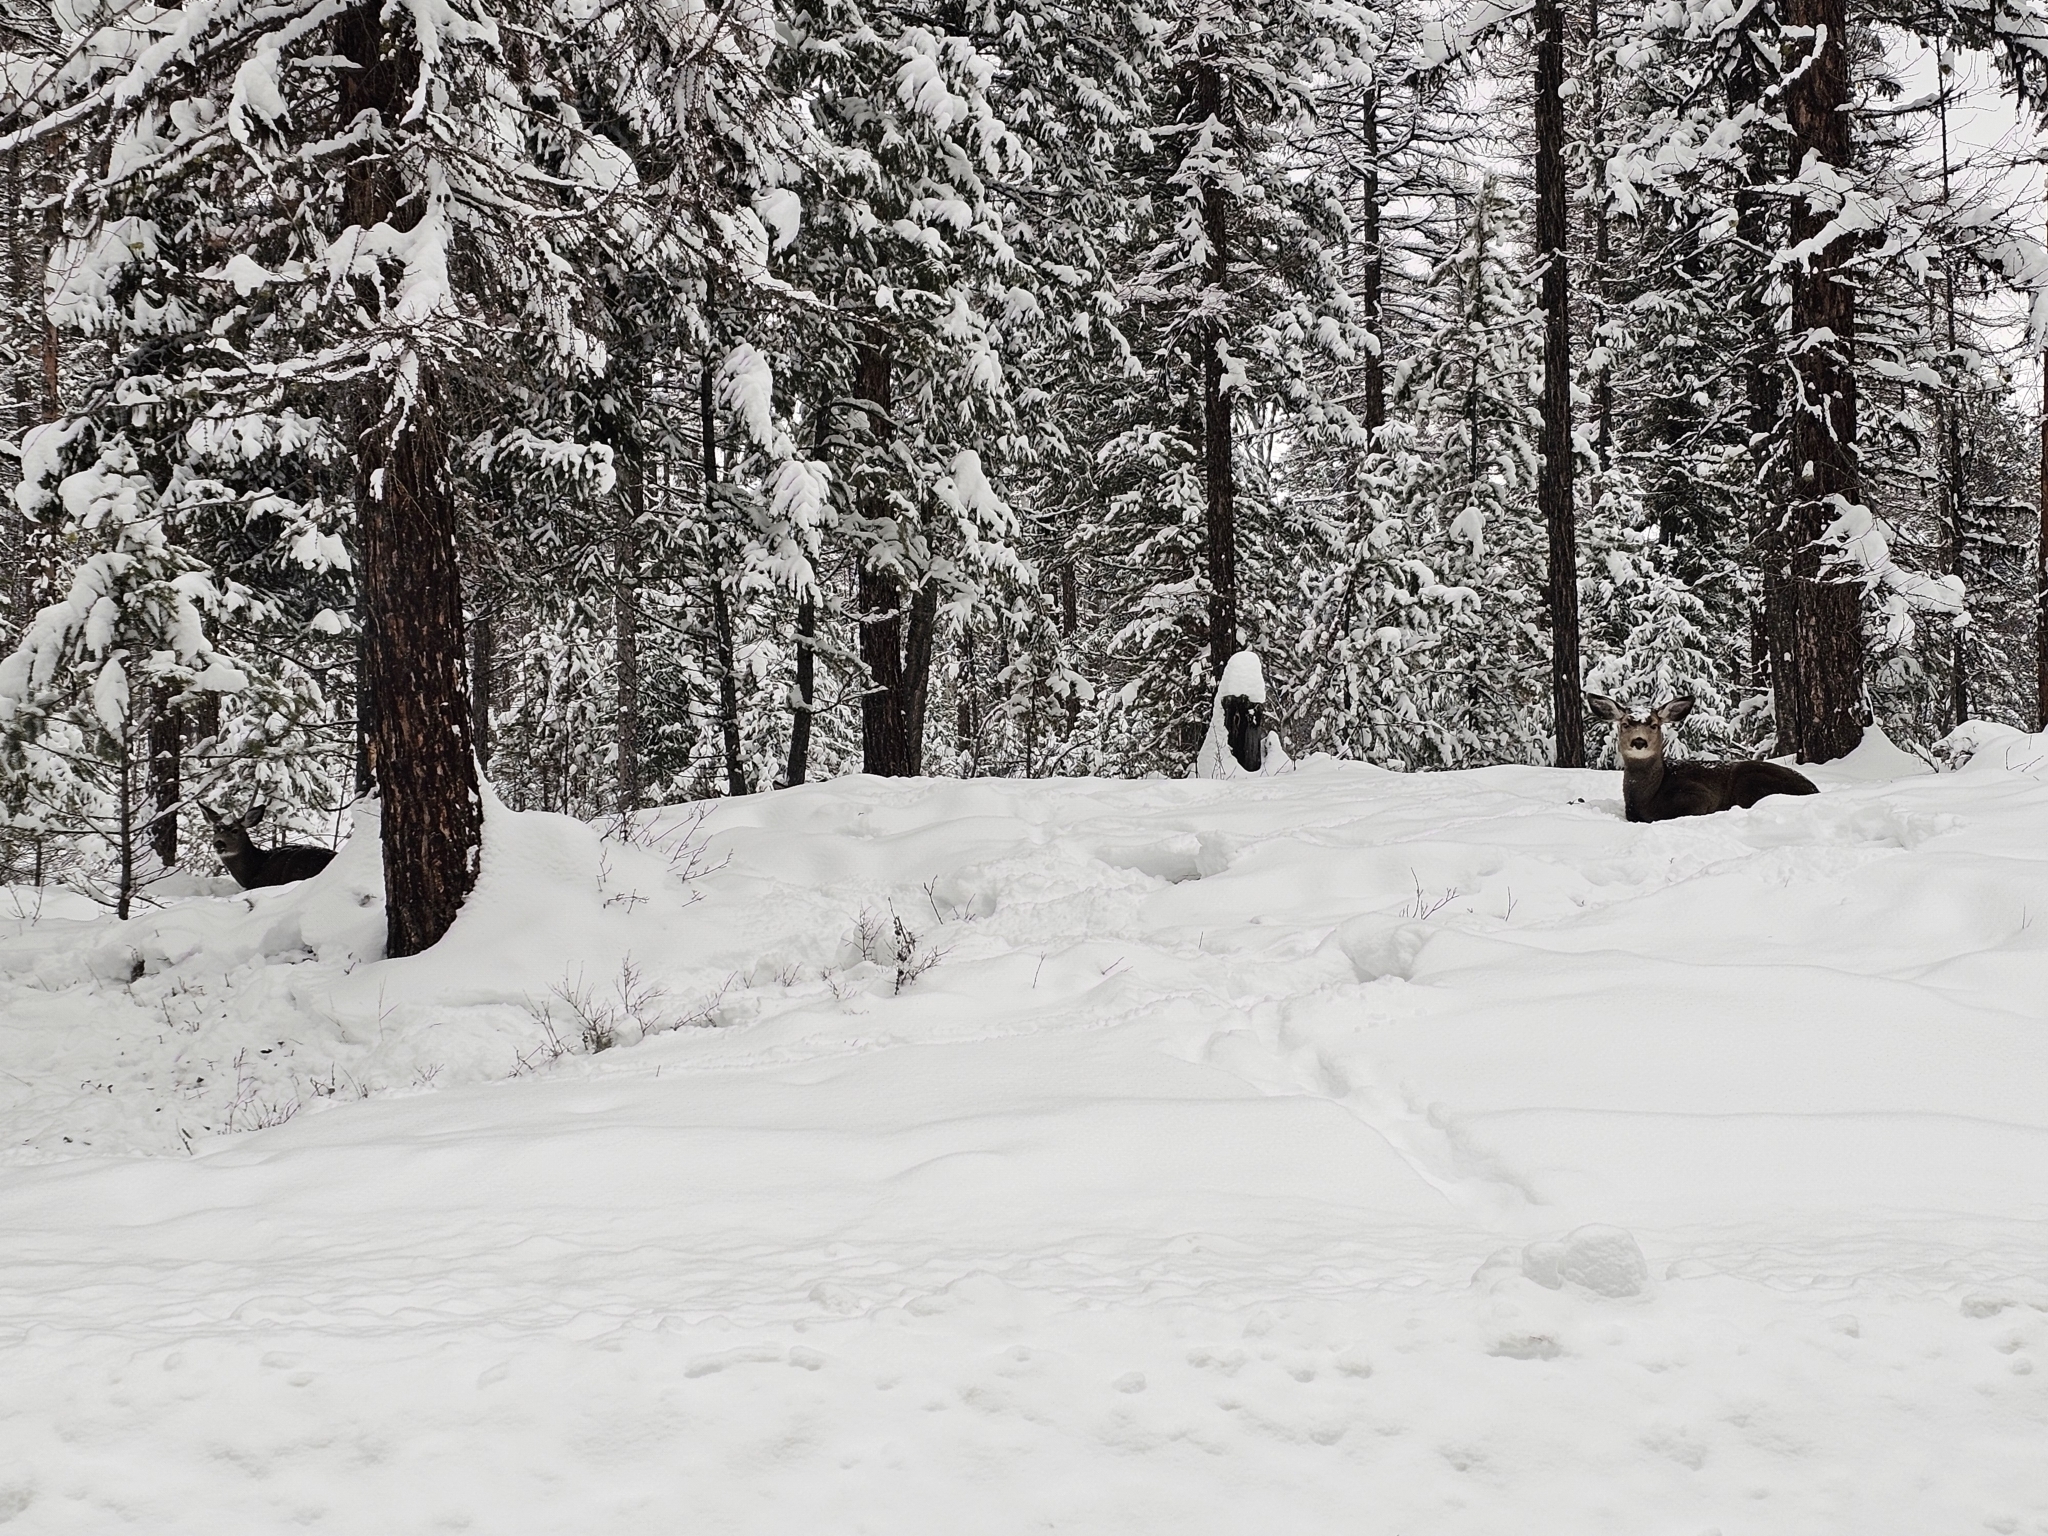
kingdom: Animalia
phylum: Chordata
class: Mammalia
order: Artiodactyla
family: Cervidae
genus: Odocoileus
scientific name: Odocoileus hemionus
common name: Mule deer
